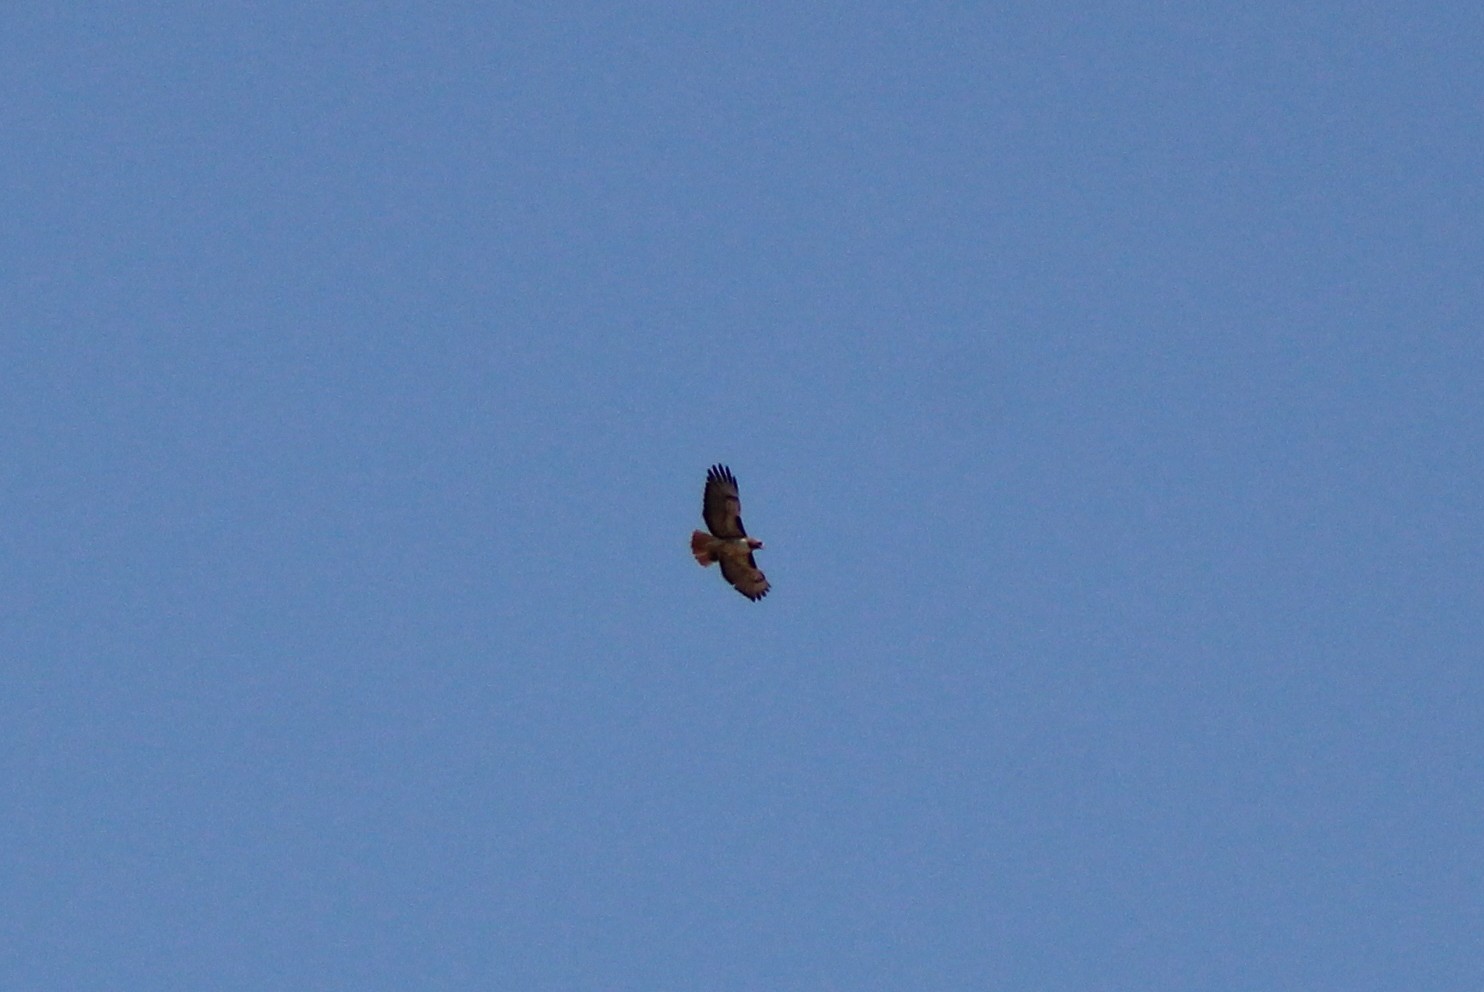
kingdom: Animalia
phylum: Chordata
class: Aves
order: Accipitriformes
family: Accipitridae
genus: Buteo
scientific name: Buteo jamaicensis
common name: Red-tailed hawk
